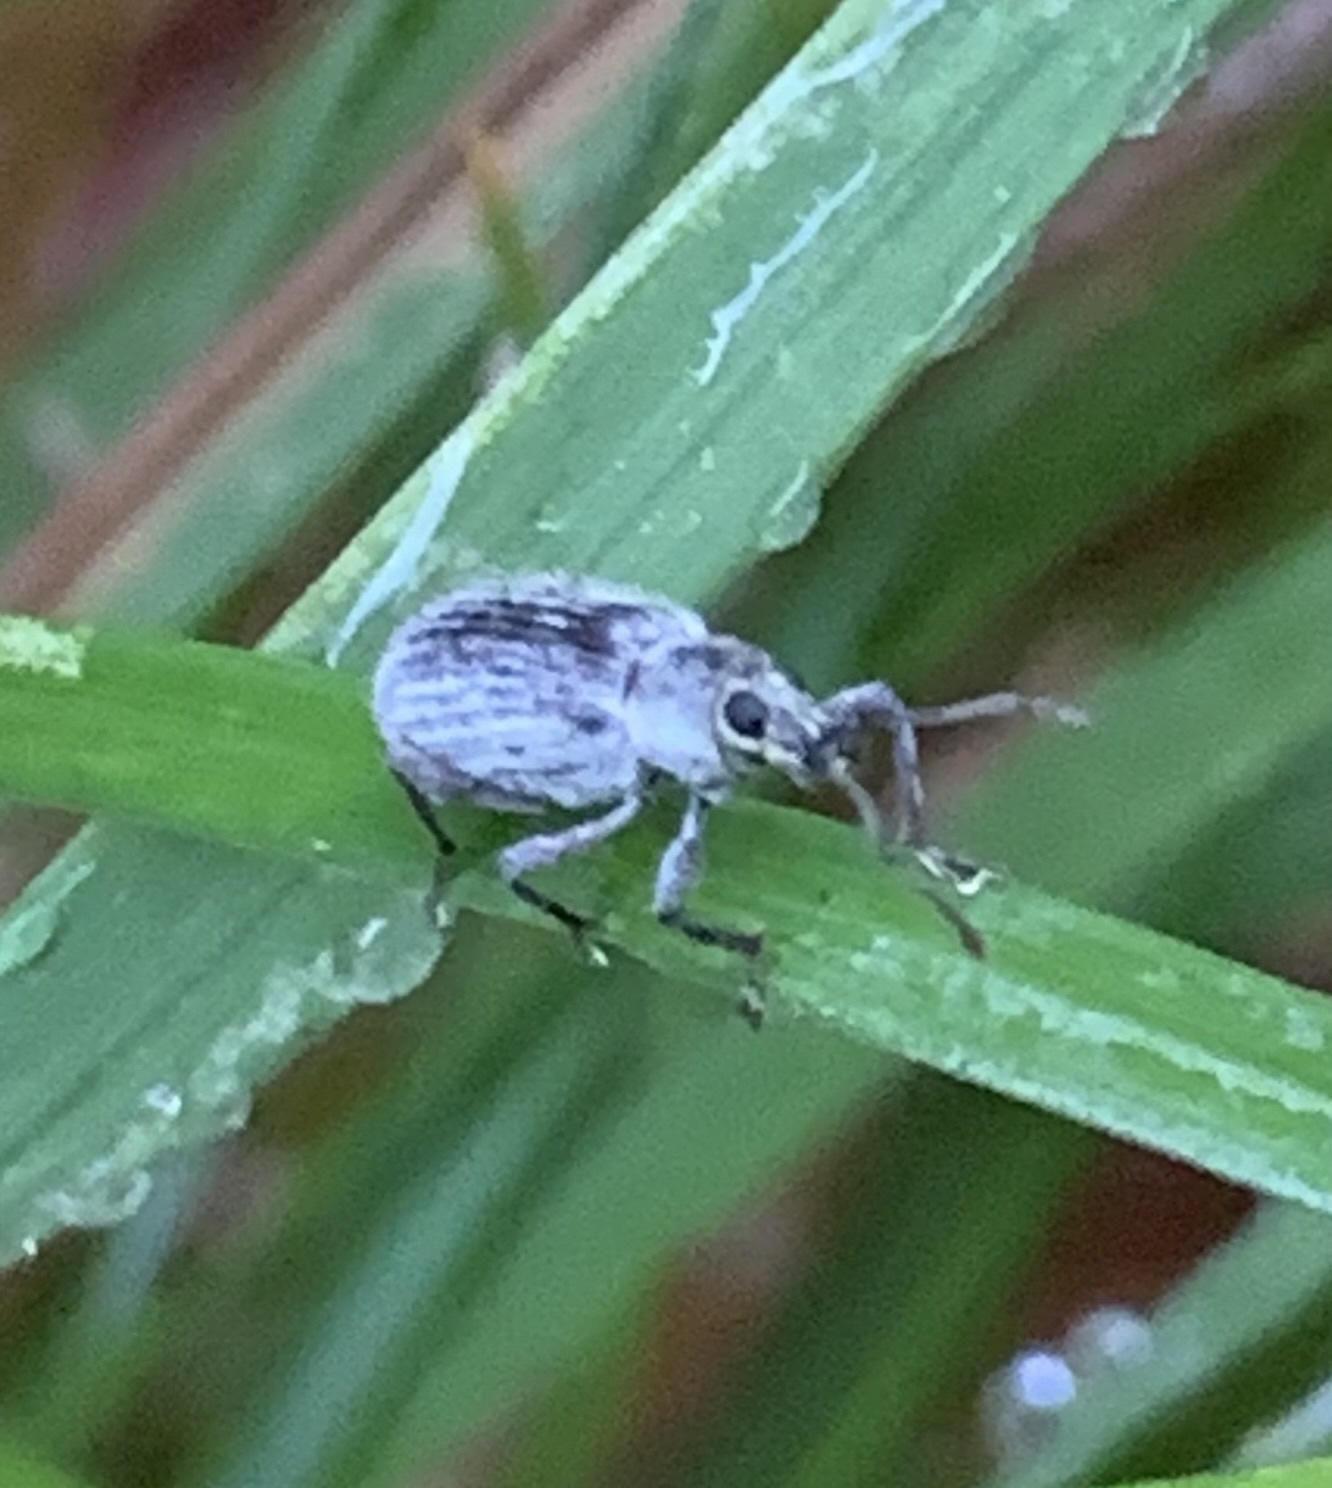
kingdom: Animalia
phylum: Arthropoda
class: Insecta
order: Coleoptera
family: Curculionidae
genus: Cyrtepistomus
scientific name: Cyrtepistomus castaneus
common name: Weevil
